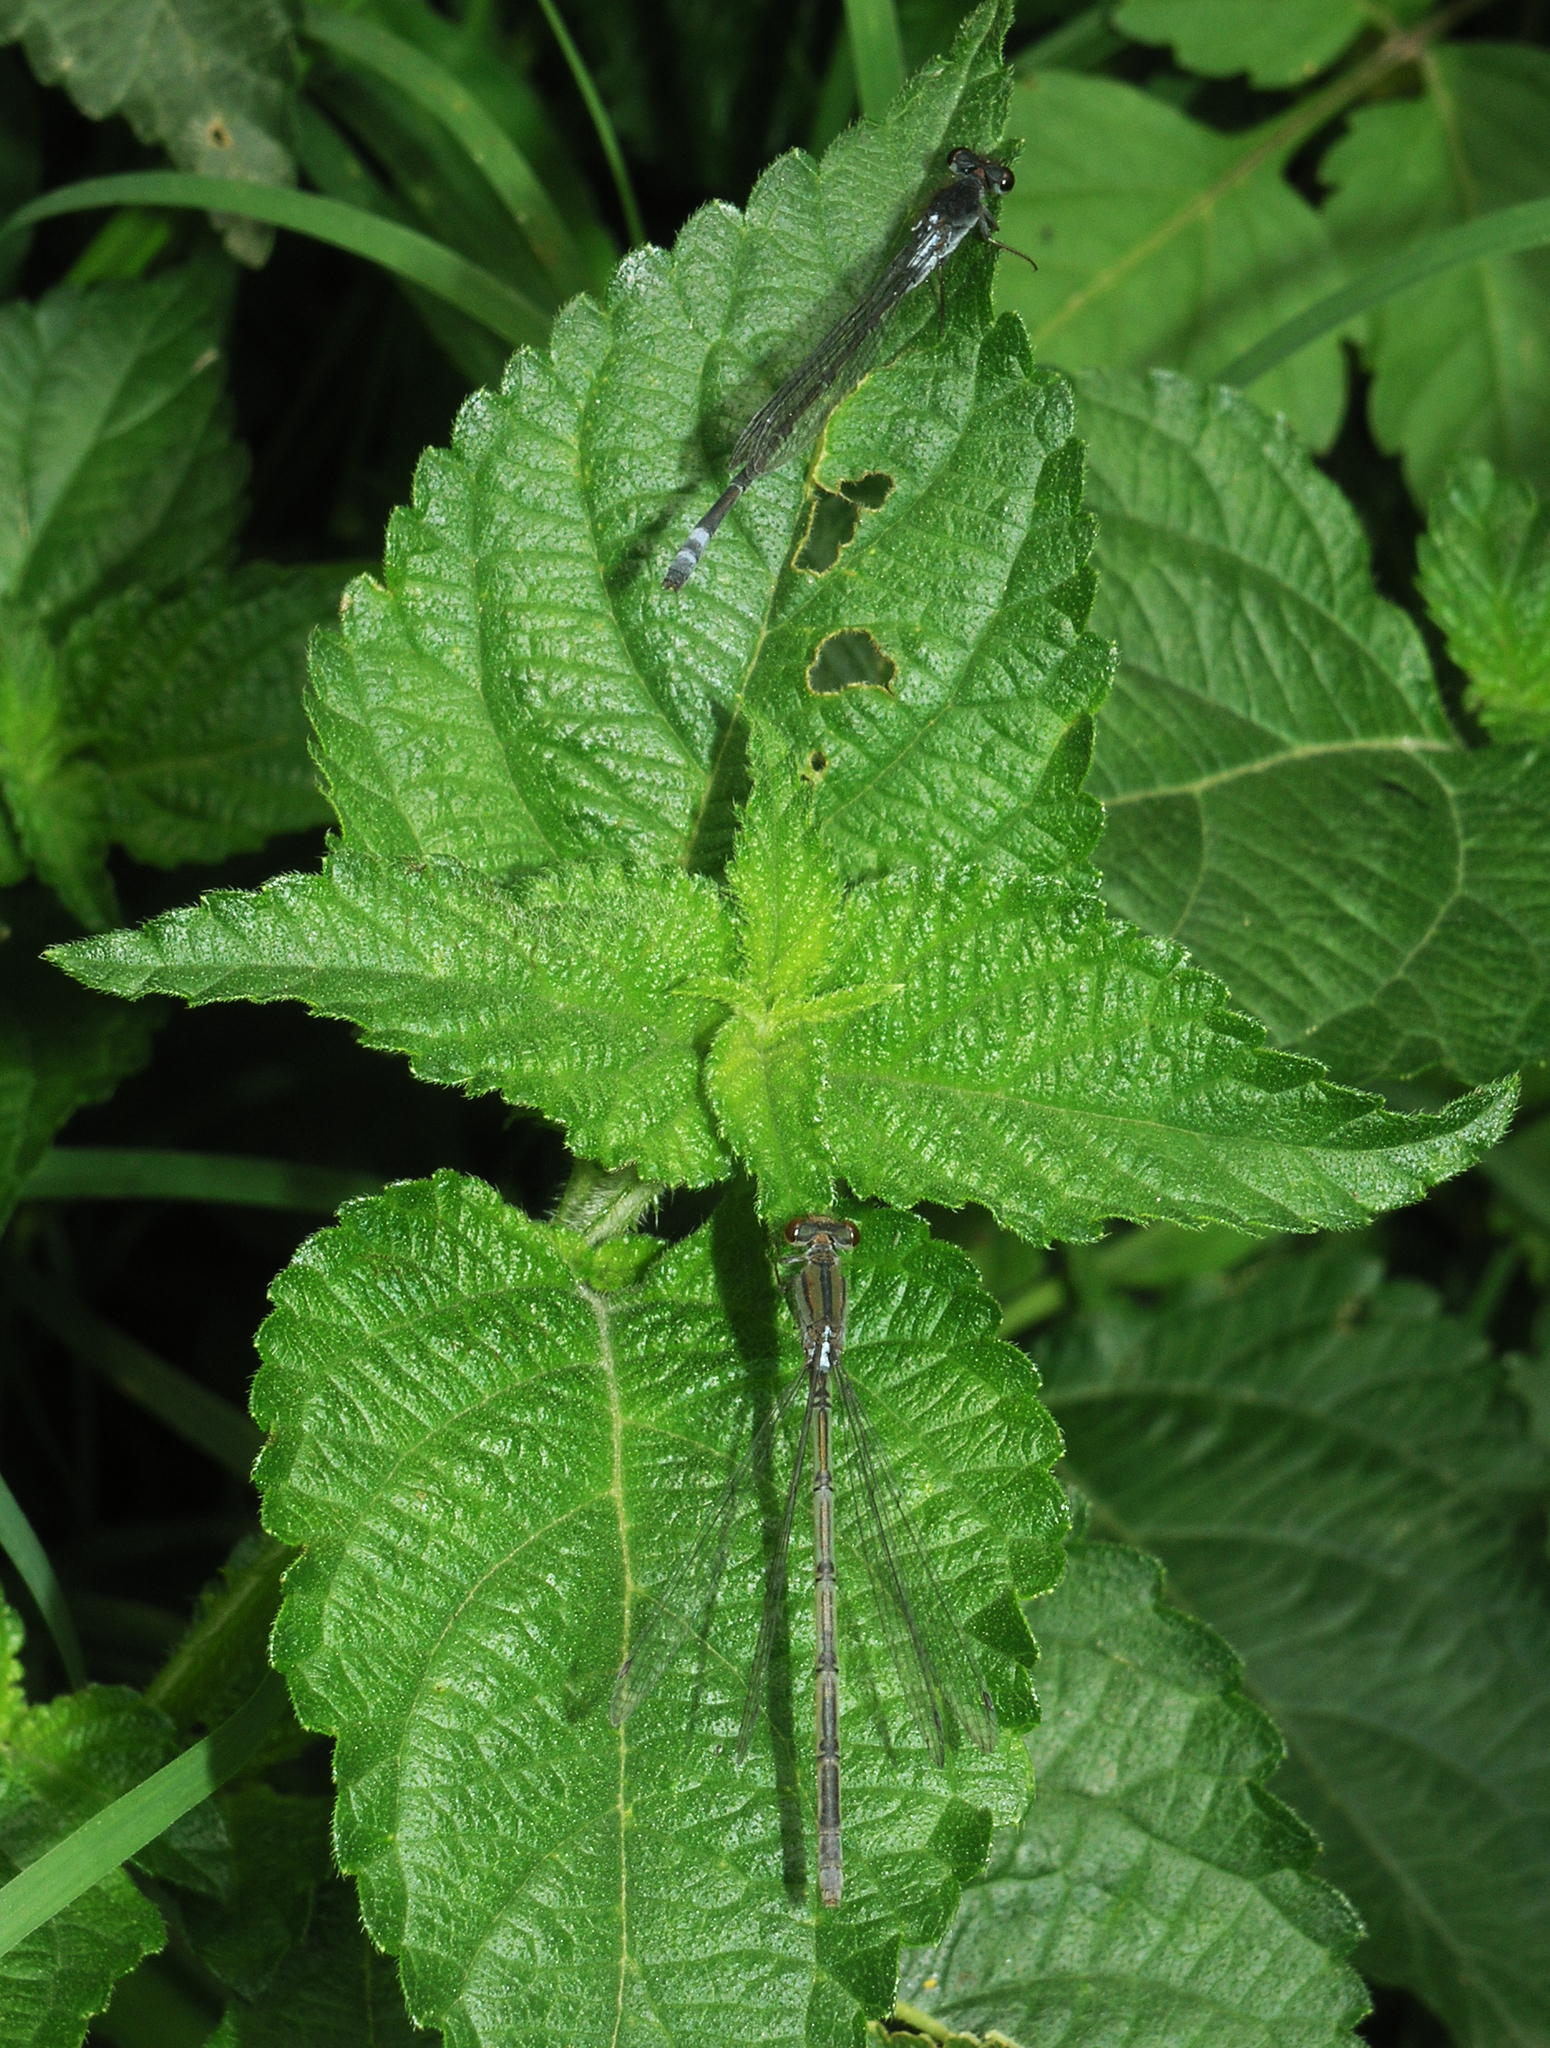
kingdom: Animalia
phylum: Arthropoda
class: Insecta
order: Odonata
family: Coenagrionidae
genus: Pseudagrion
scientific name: Pseudagrion hamoni
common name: Swarthy sprite
